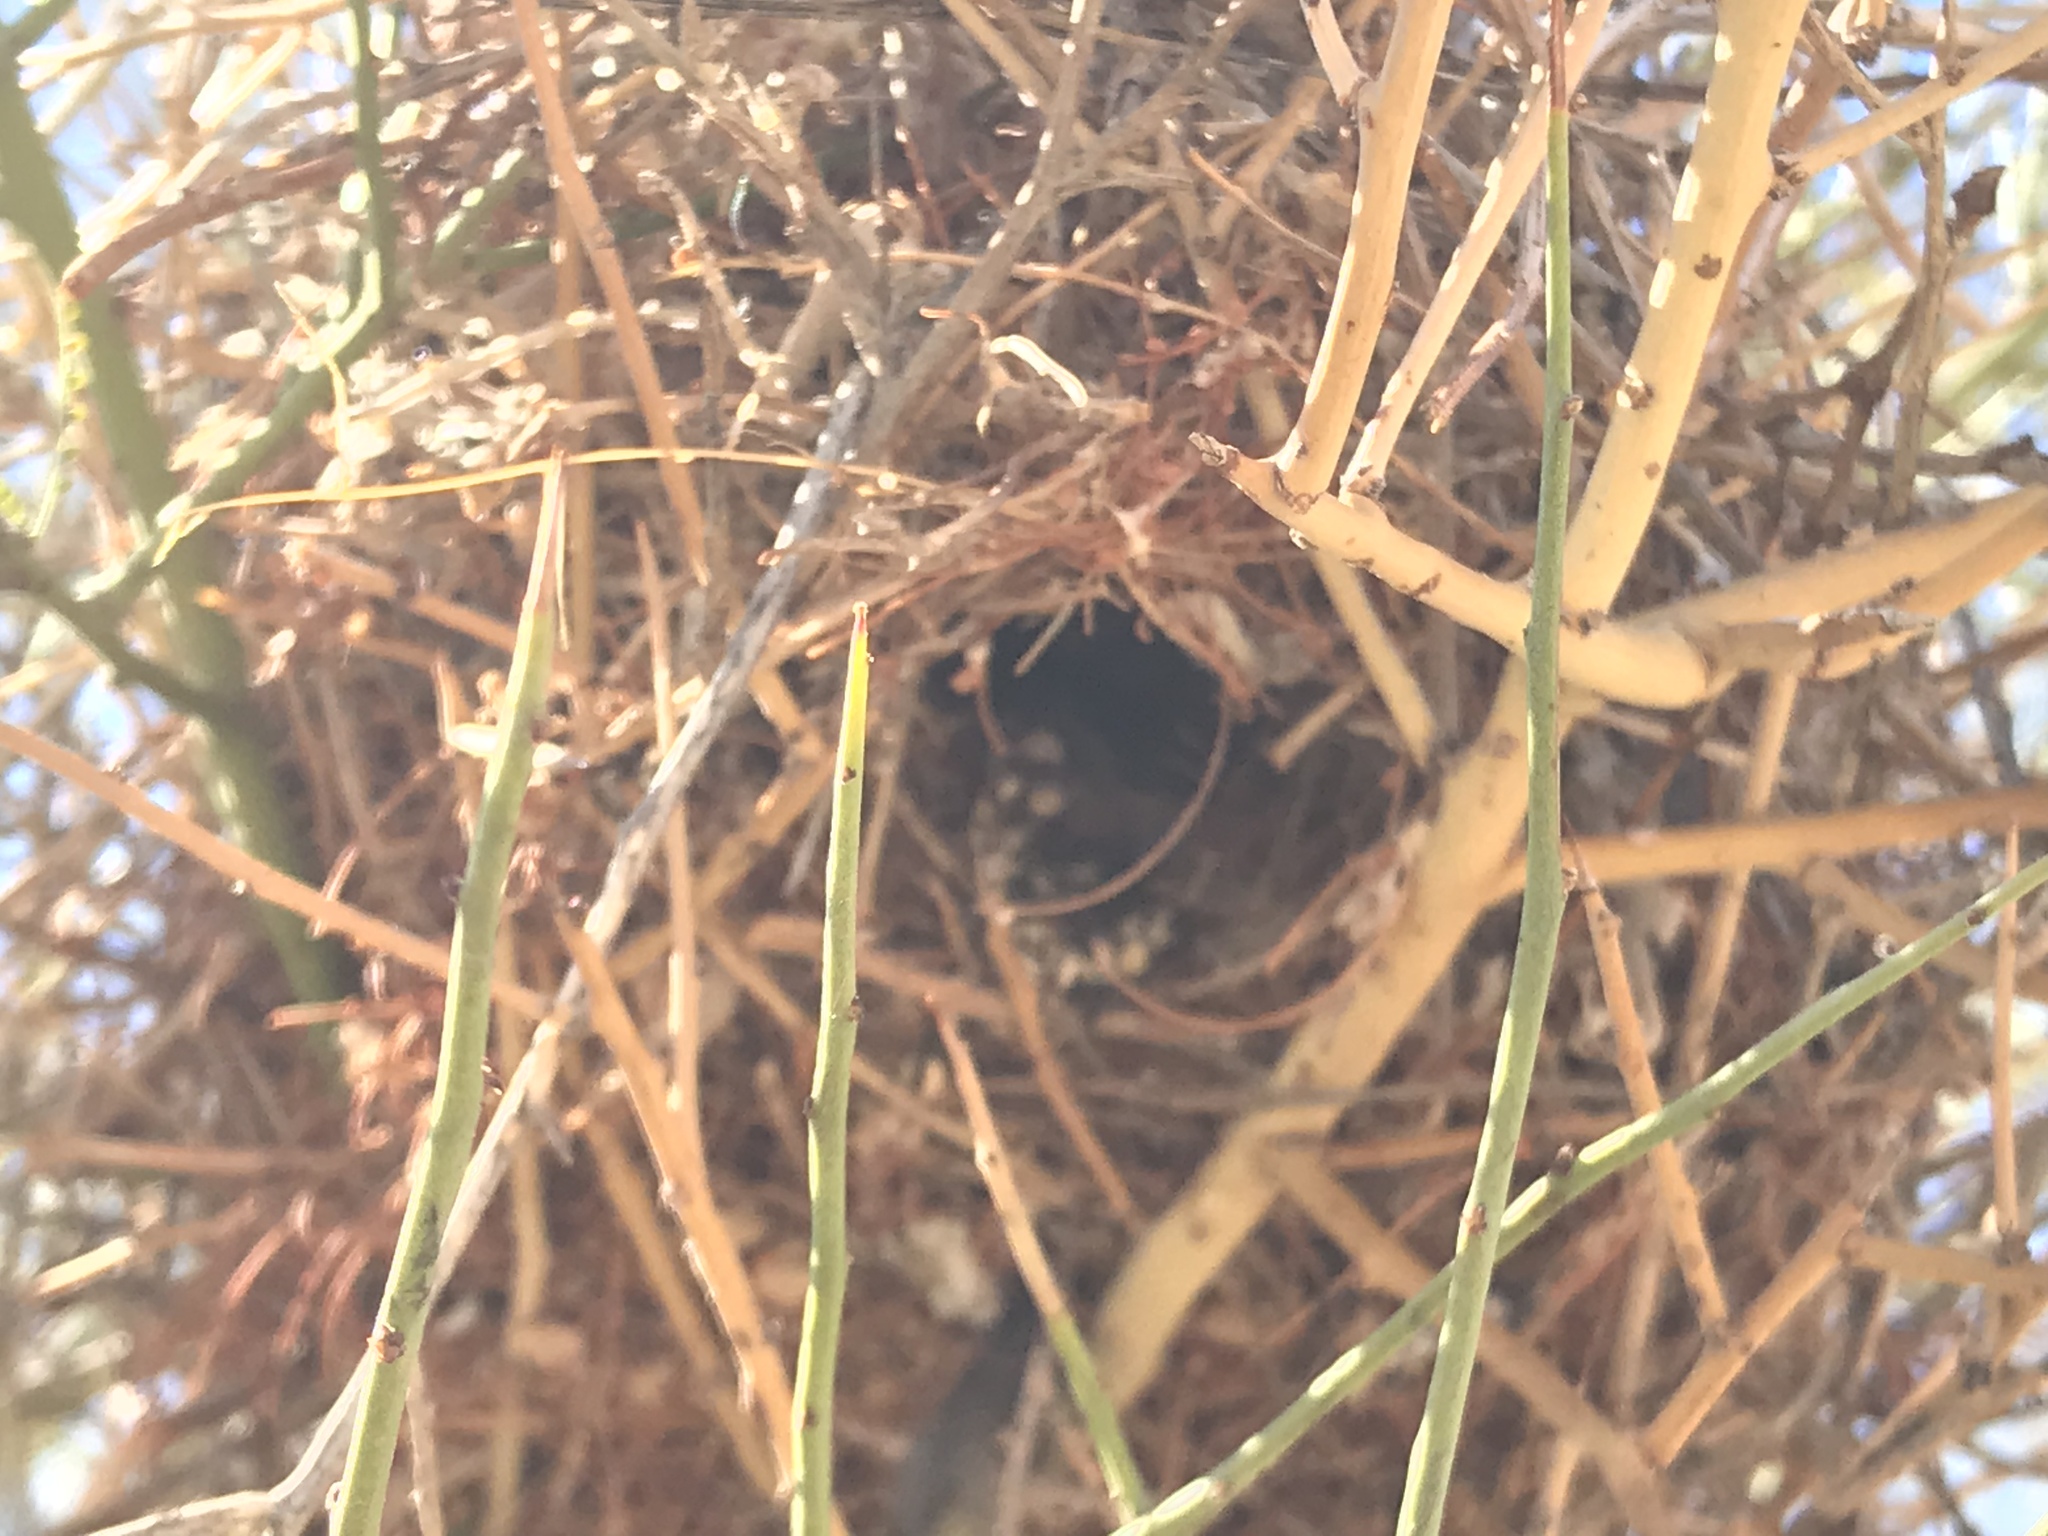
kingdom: Animalia
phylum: Chordata
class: Aves
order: Passeriformes
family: Remizidae
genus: Auriparus
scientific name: Auriparus flaviceps
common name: Verdin
